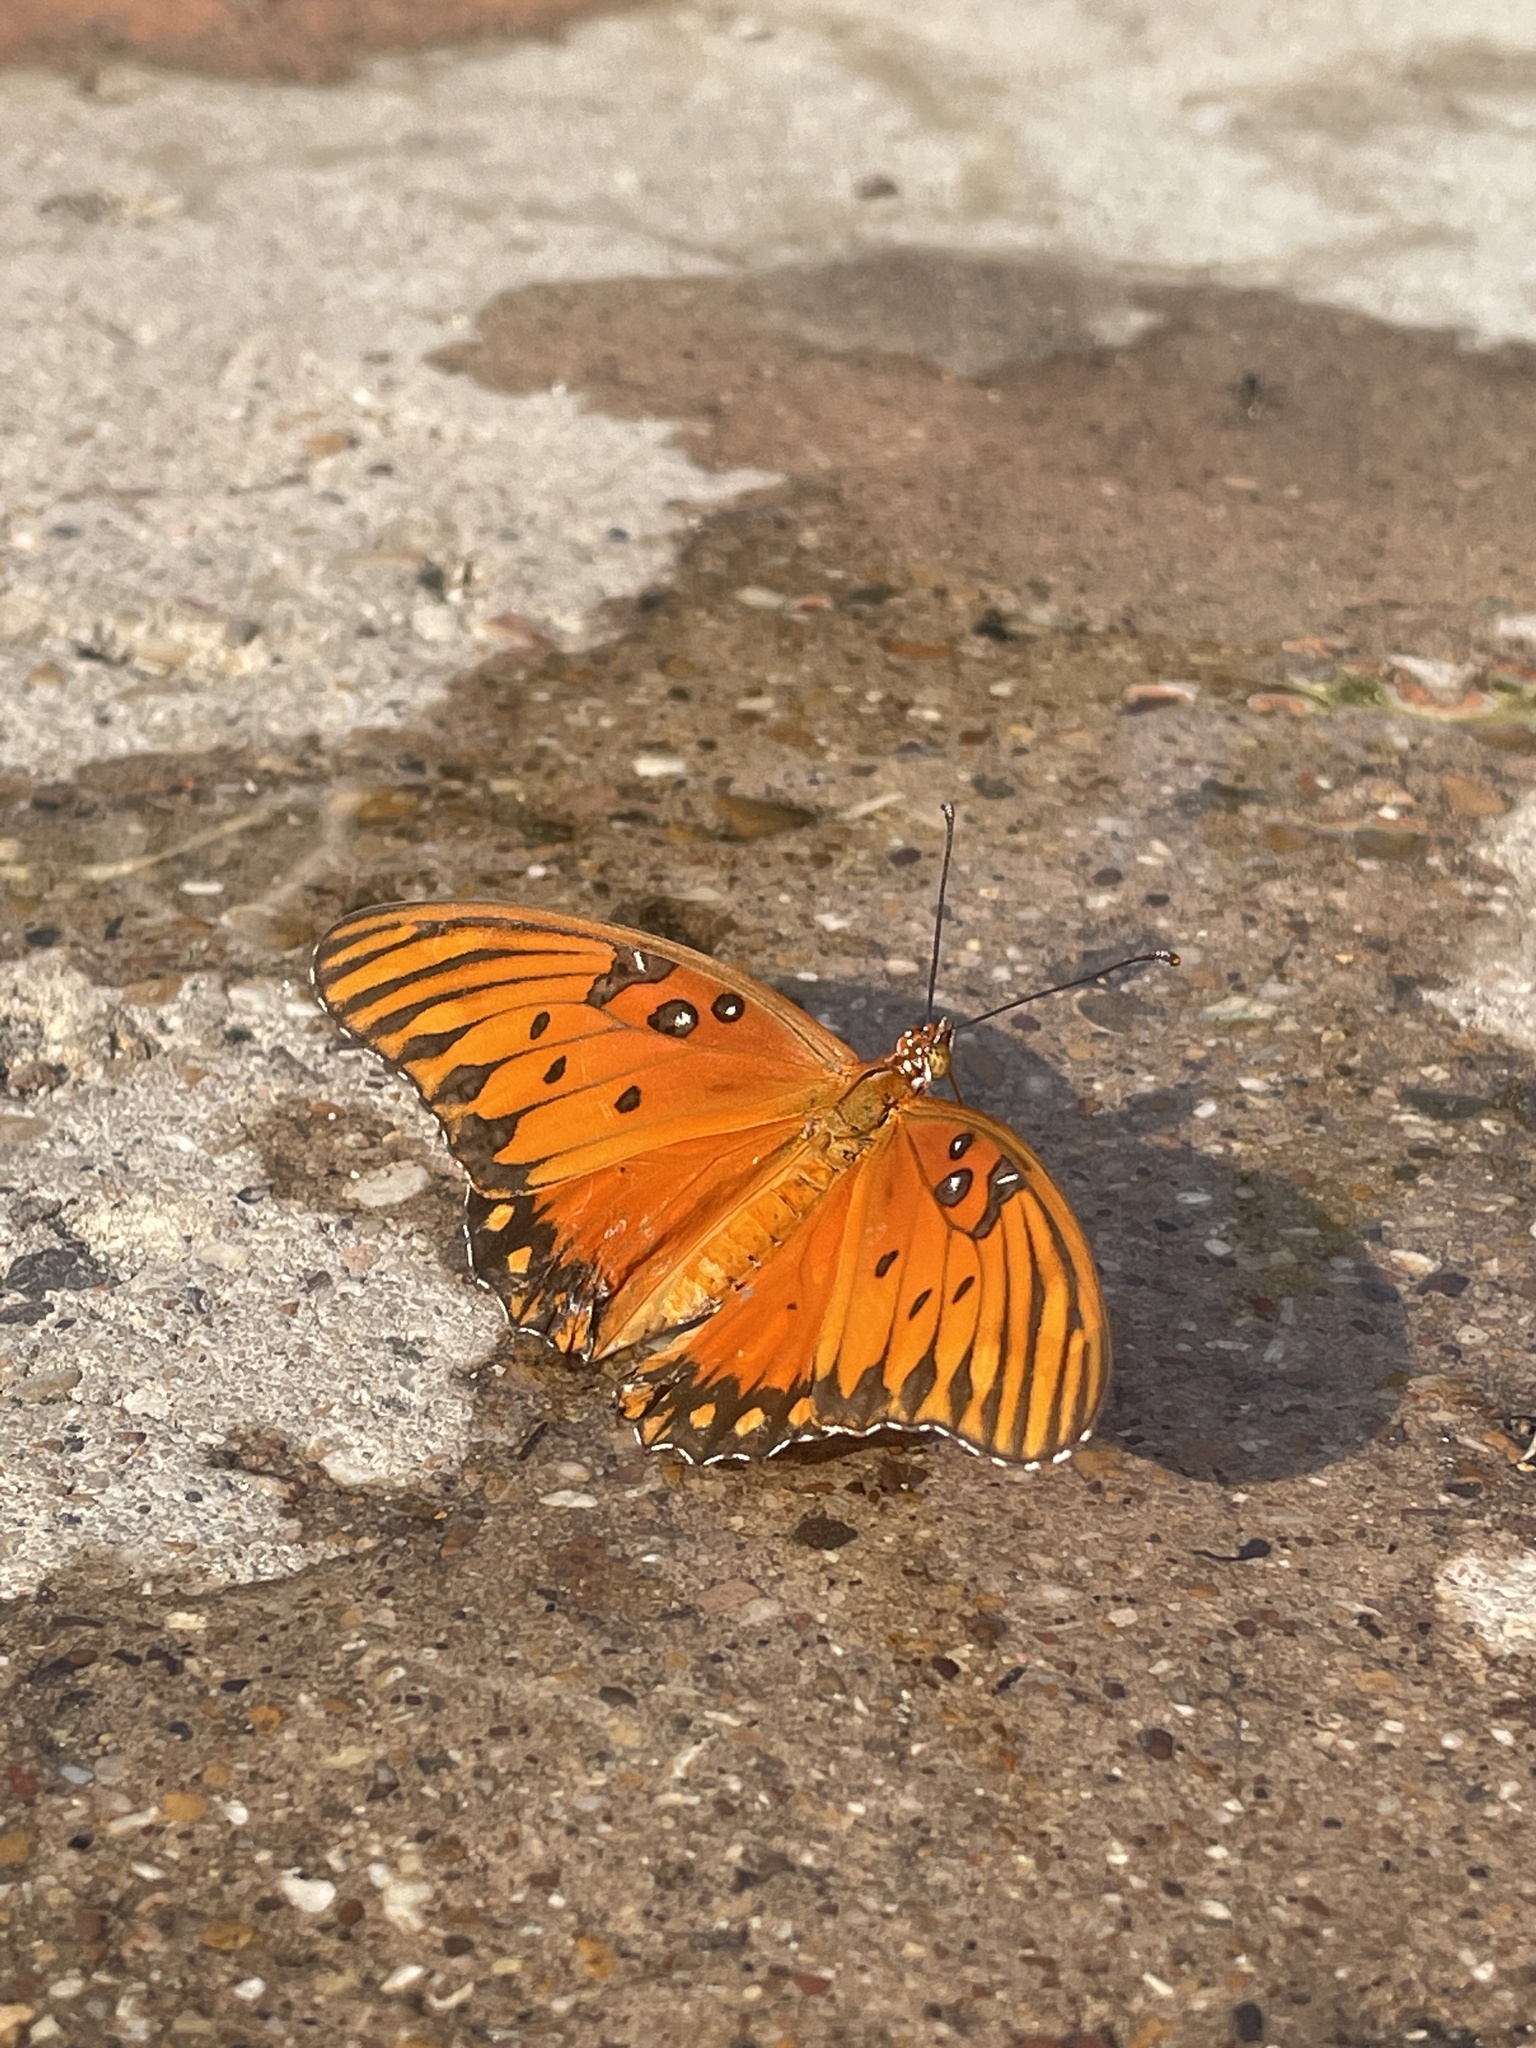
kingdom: Animalia
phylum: Arthropoda
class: Insecta
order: Lepidoptera
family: Nymphalidae
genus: Dione
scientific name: Dione vanillae
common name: Gulf fritillary
